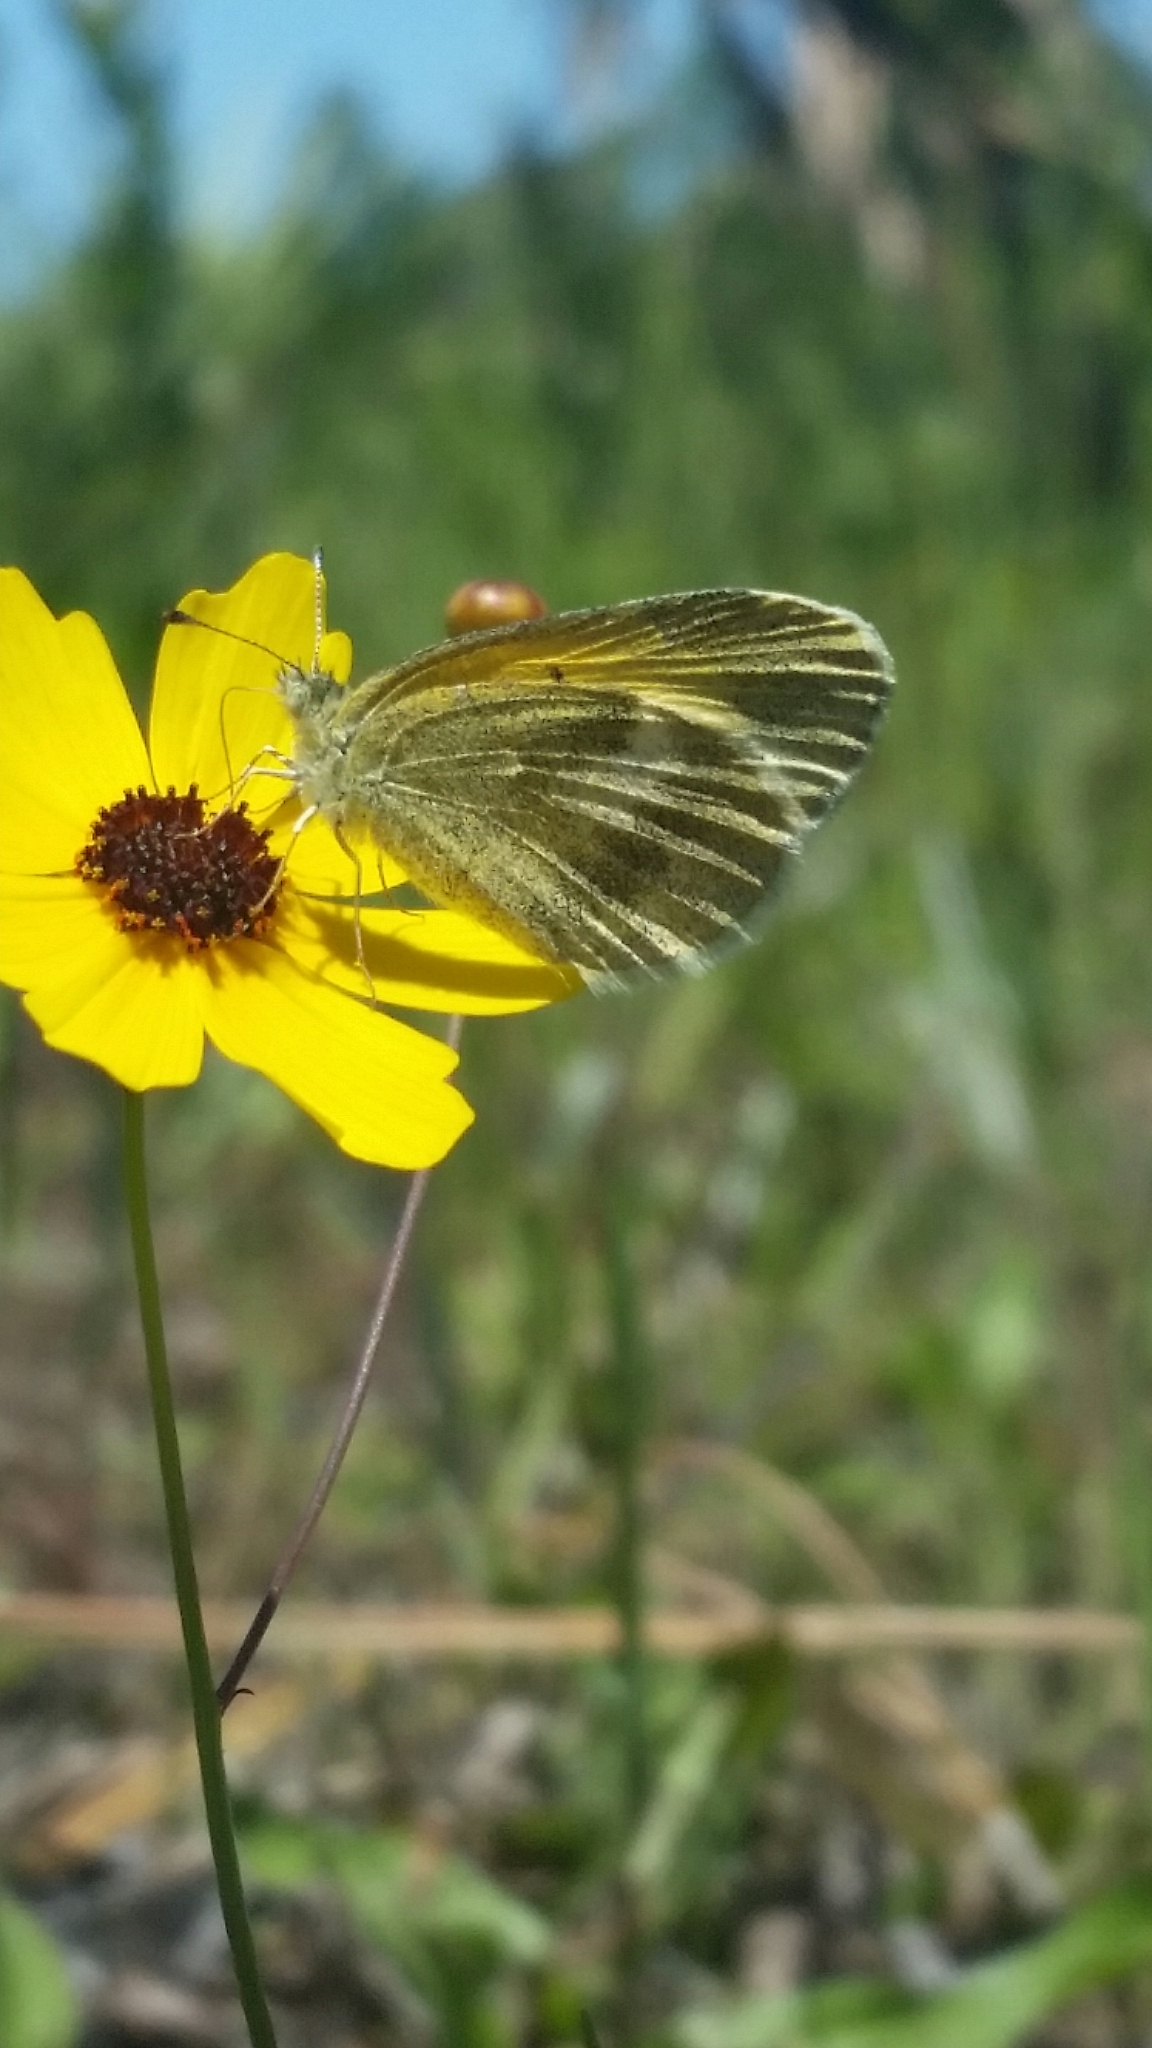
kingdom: Animalia
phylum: Arthropoda
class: Insecta
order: Lepidoptera
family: Pieridae
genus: Nathalis
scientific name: Nathalis iole
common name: Dainty sulphur
